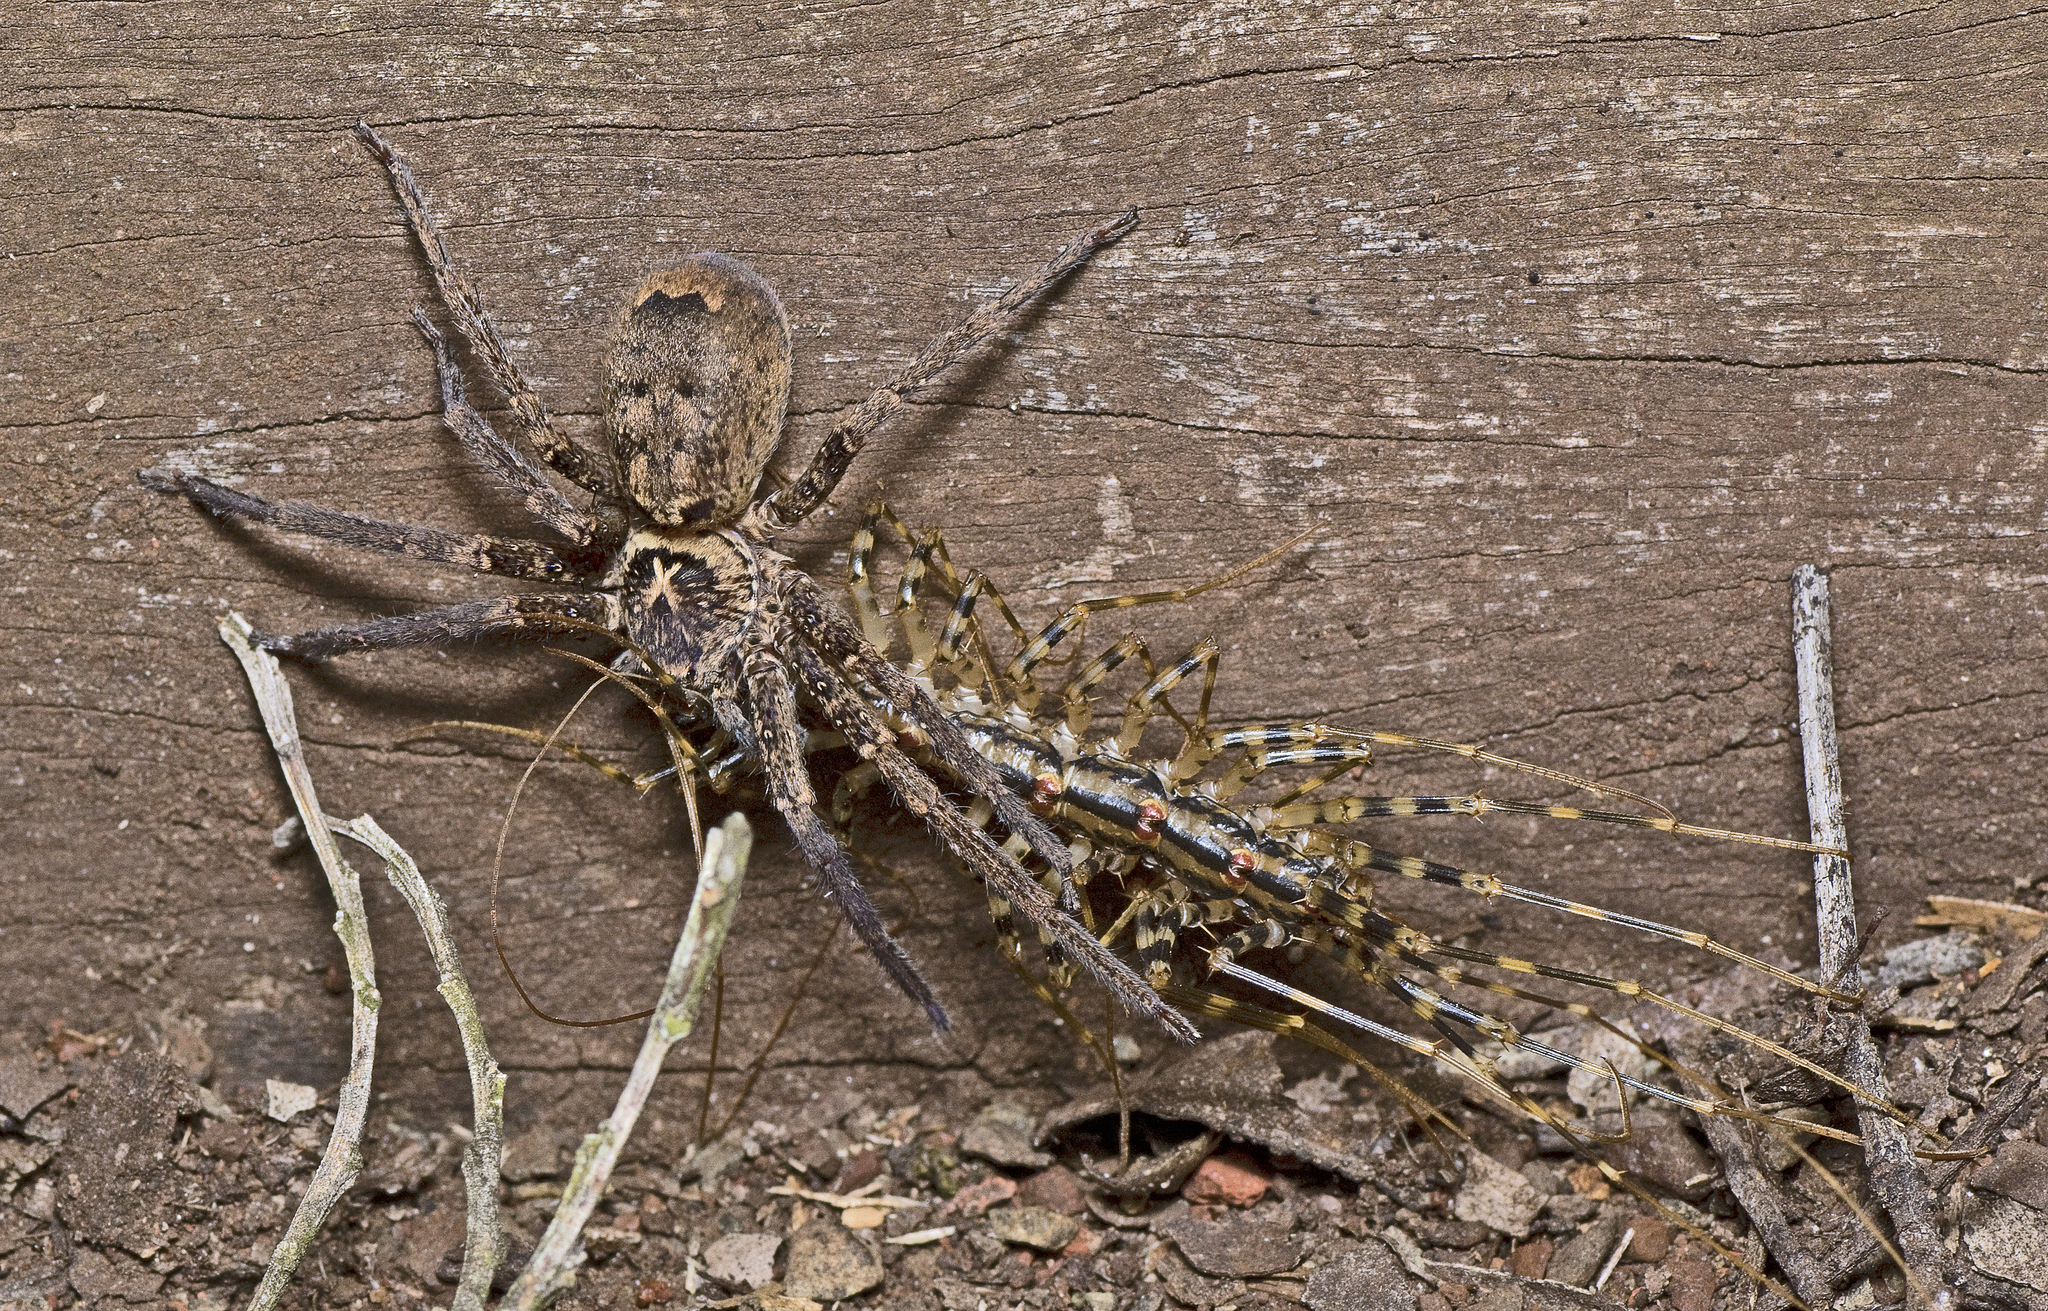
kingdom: Animalia
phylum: Arthropoda
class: Chilopoda
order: Scutigeromorpha
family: Scutigeridae
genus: Allothereua
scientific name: Allothereua maculata
